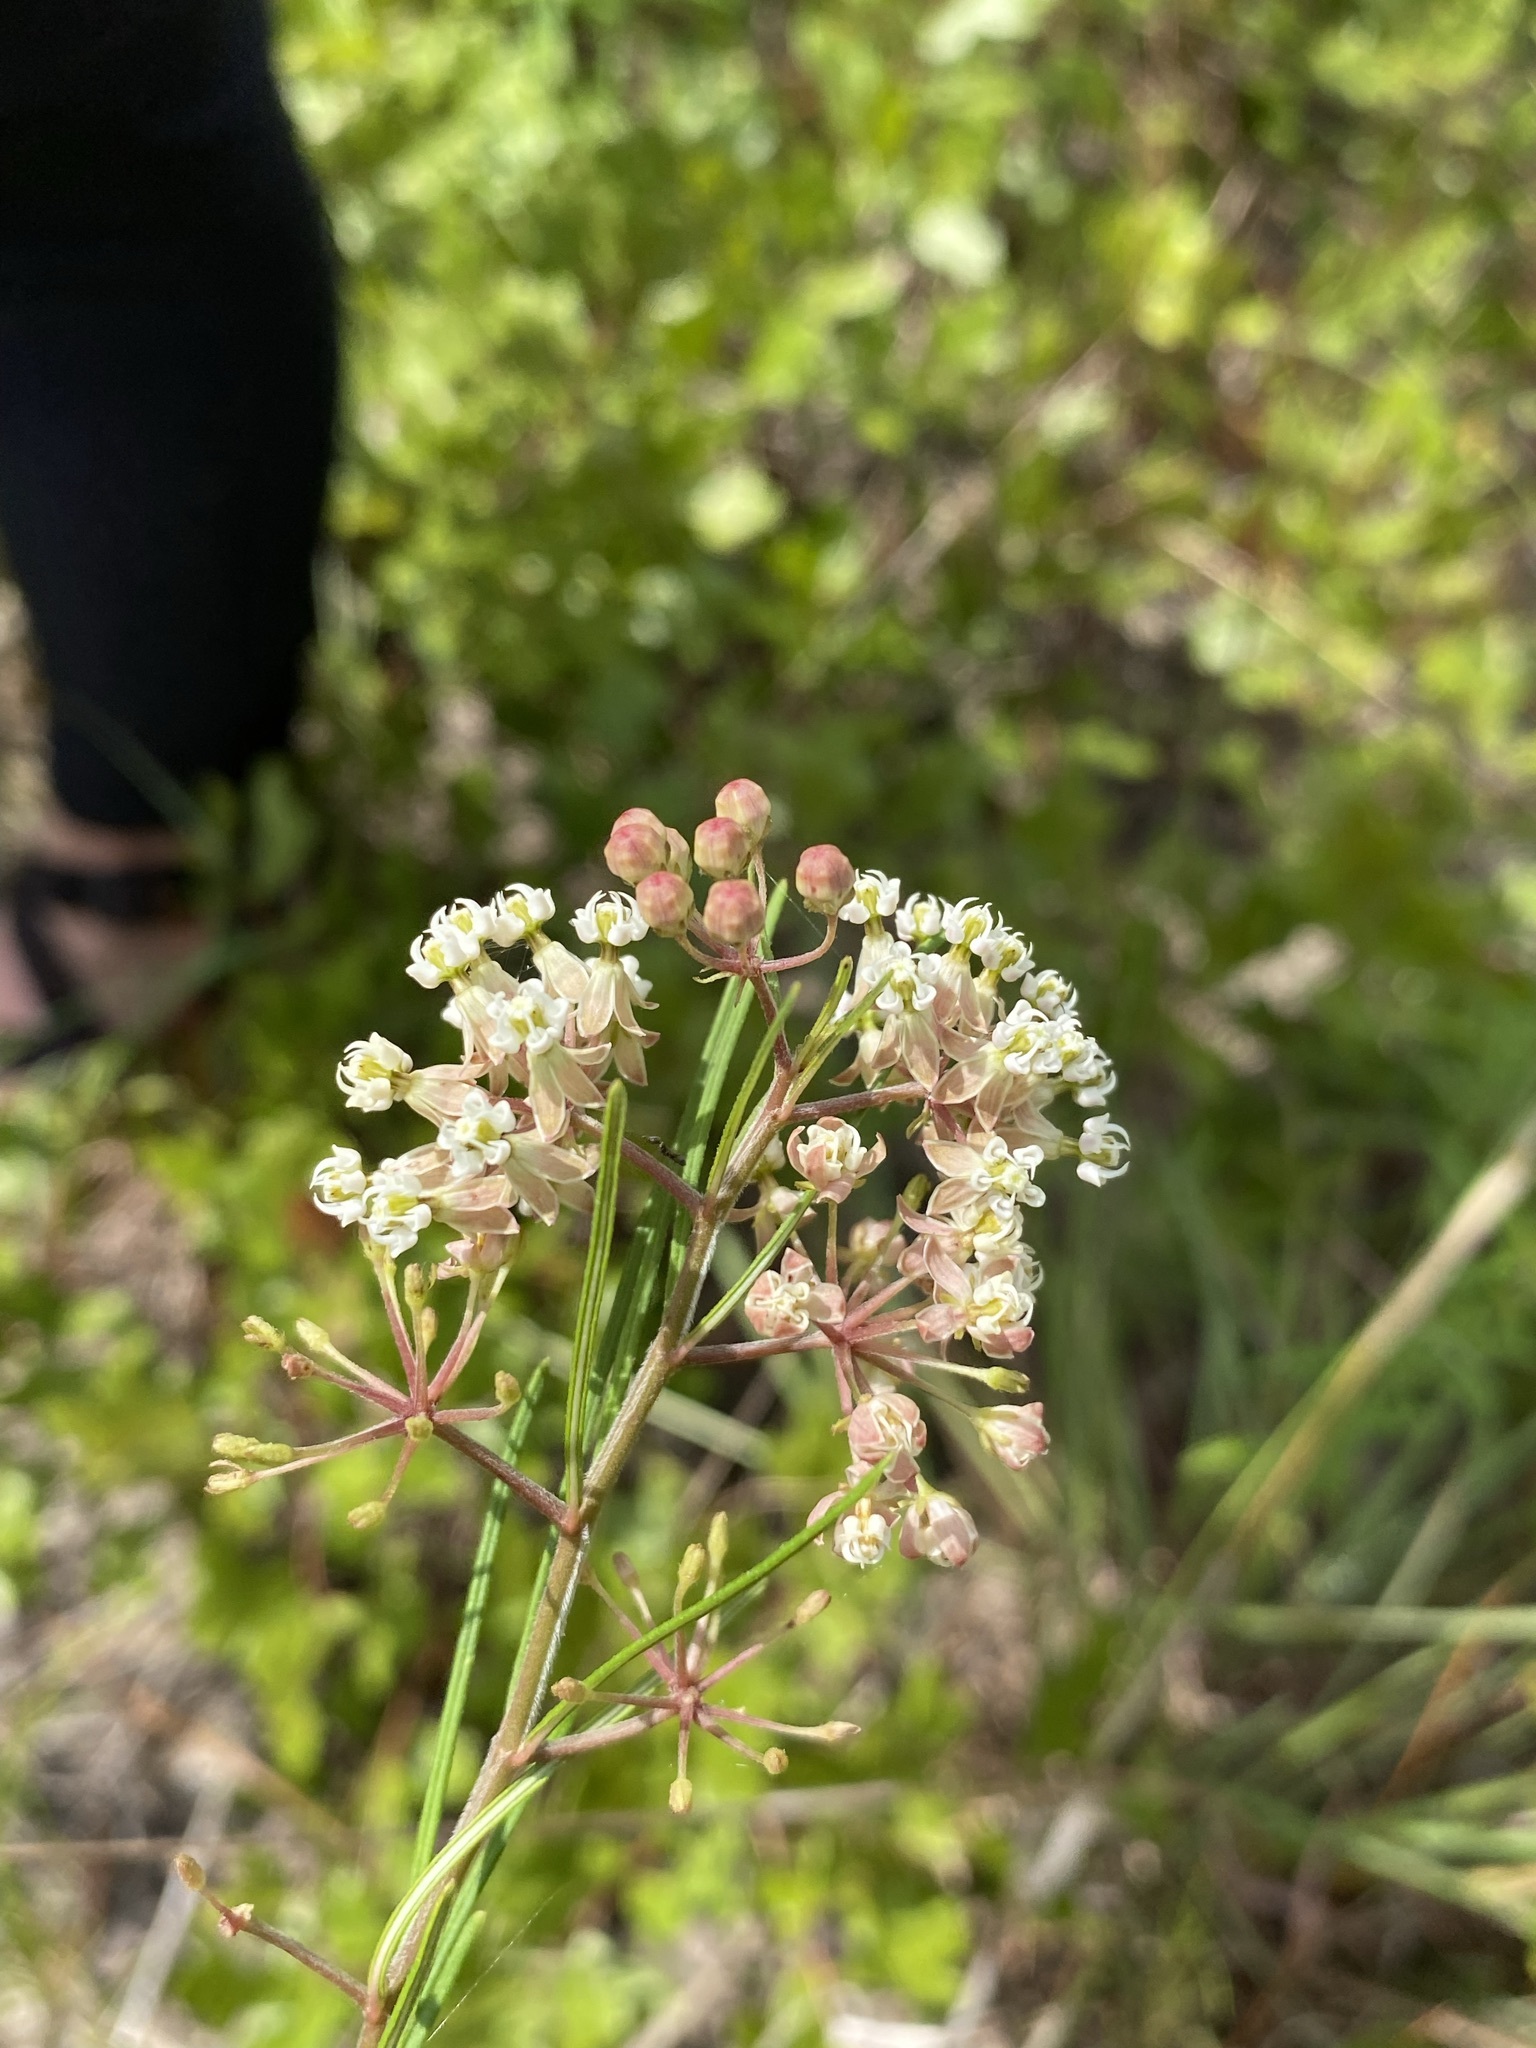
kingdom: Plantae
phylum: Tracheophyta
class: Magnoliopsida
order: Gentianales
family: Apocynaceae
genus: Asclepias
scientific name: Asclepias verticillata
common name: Eastern whorled milkweed
